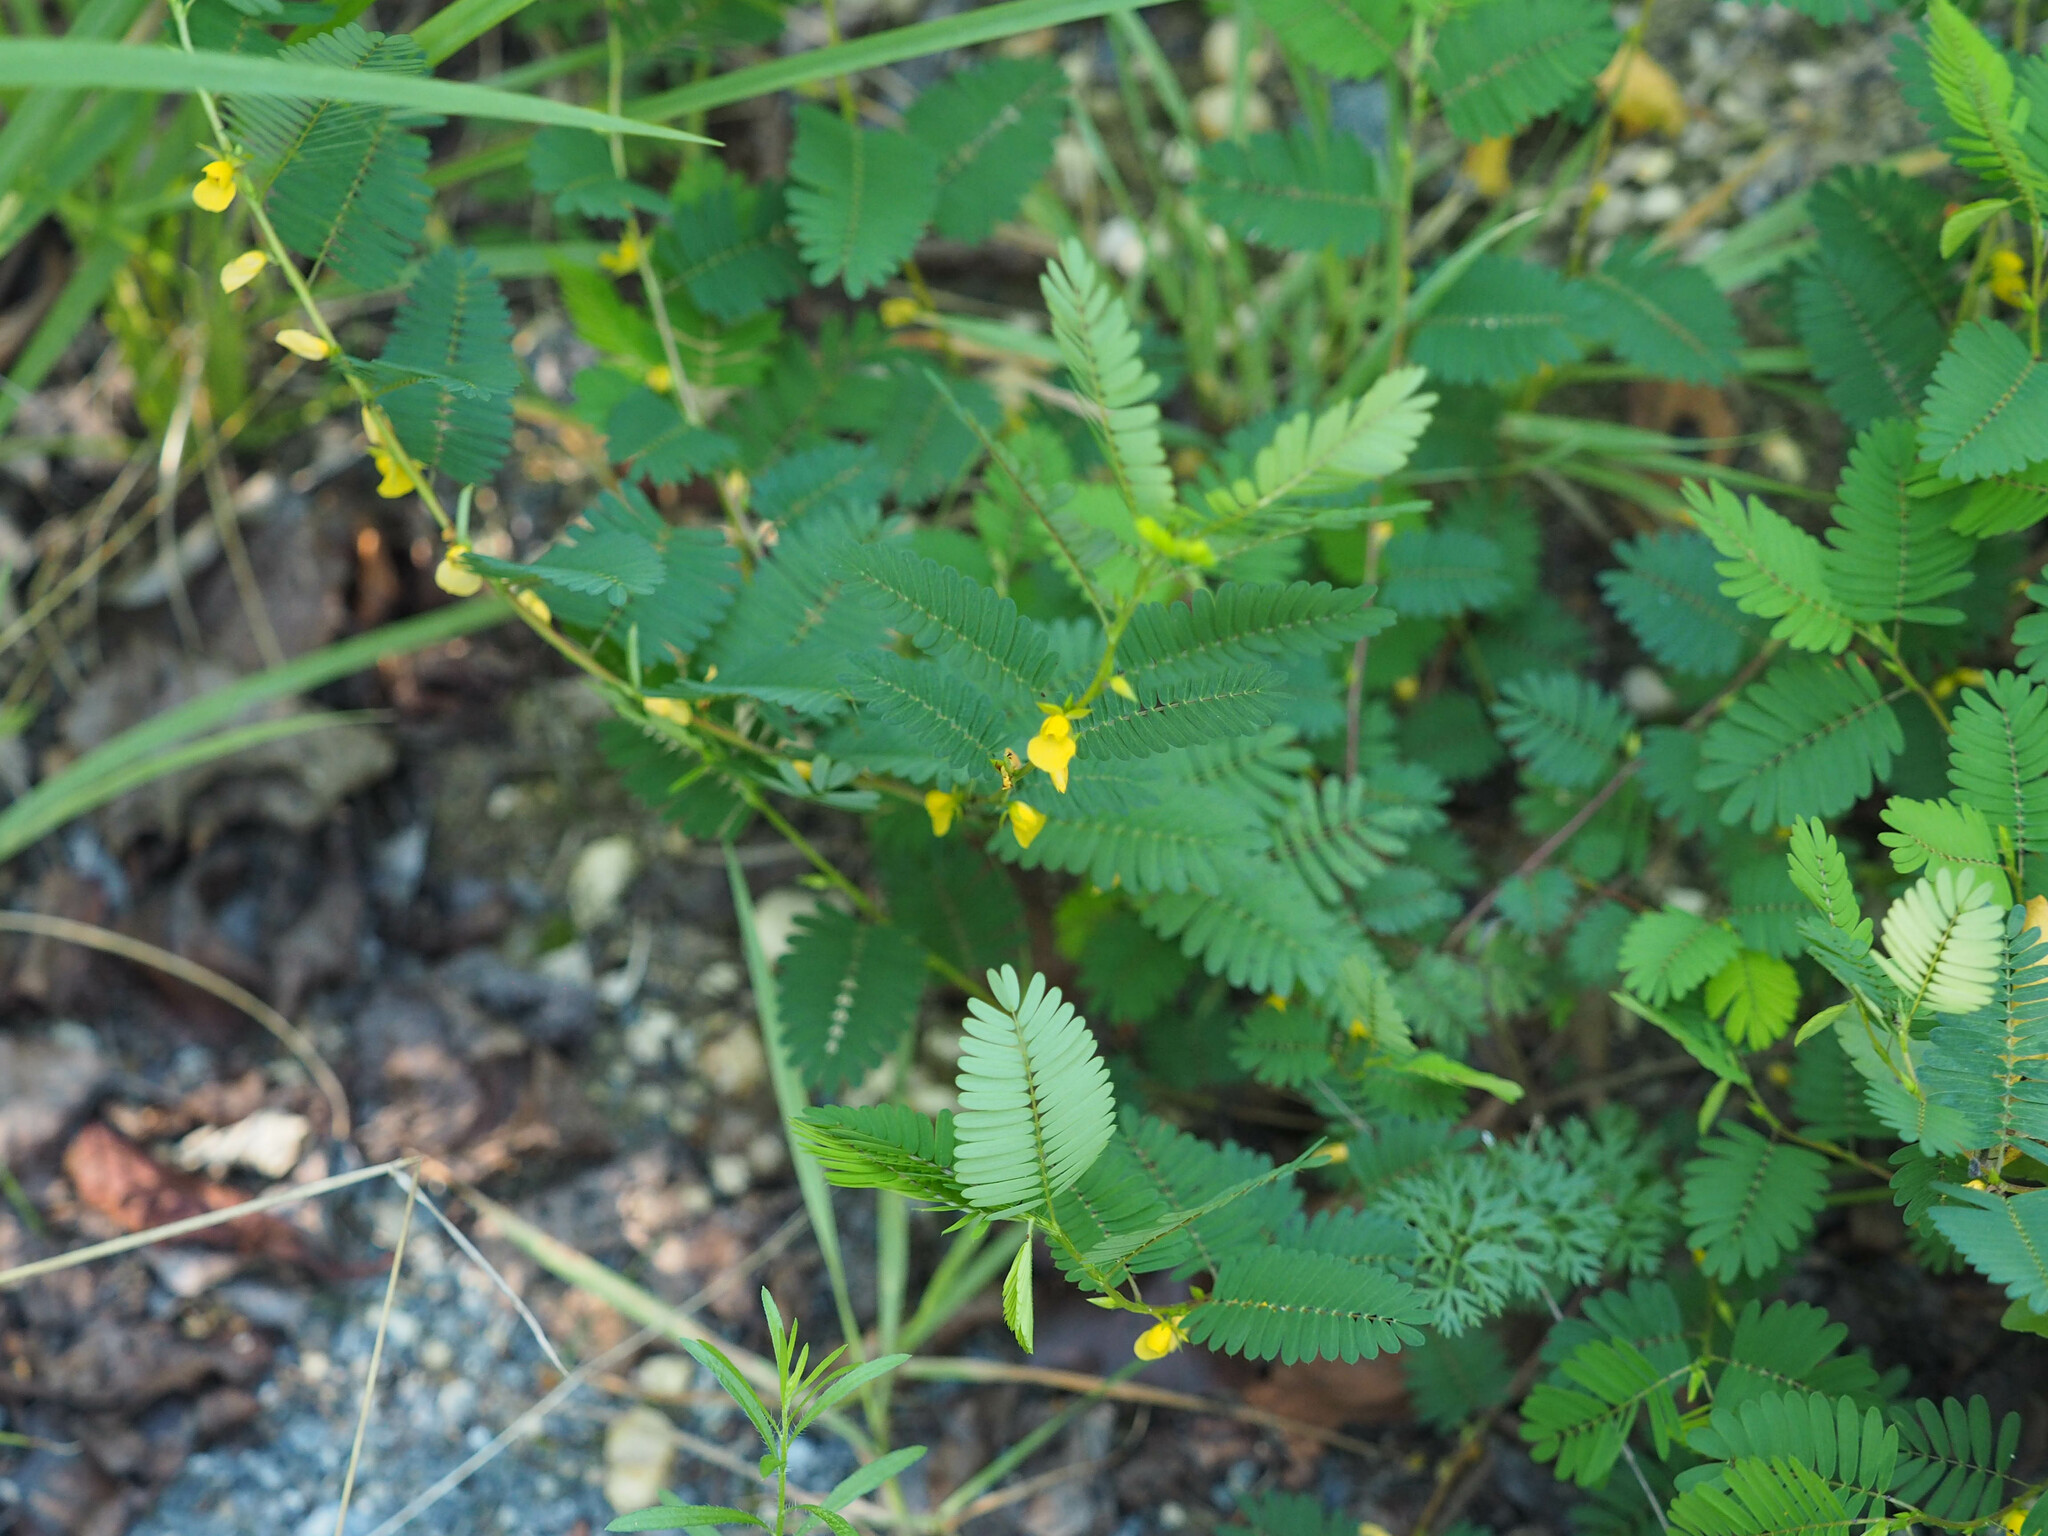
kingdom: Plantae
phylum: Tracheophyta
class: Magnoliopsida
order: Fabales
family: Fabaceae
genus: Chamaecrista
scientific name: Chamaecrista nictitans
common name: Sensitive cassia
